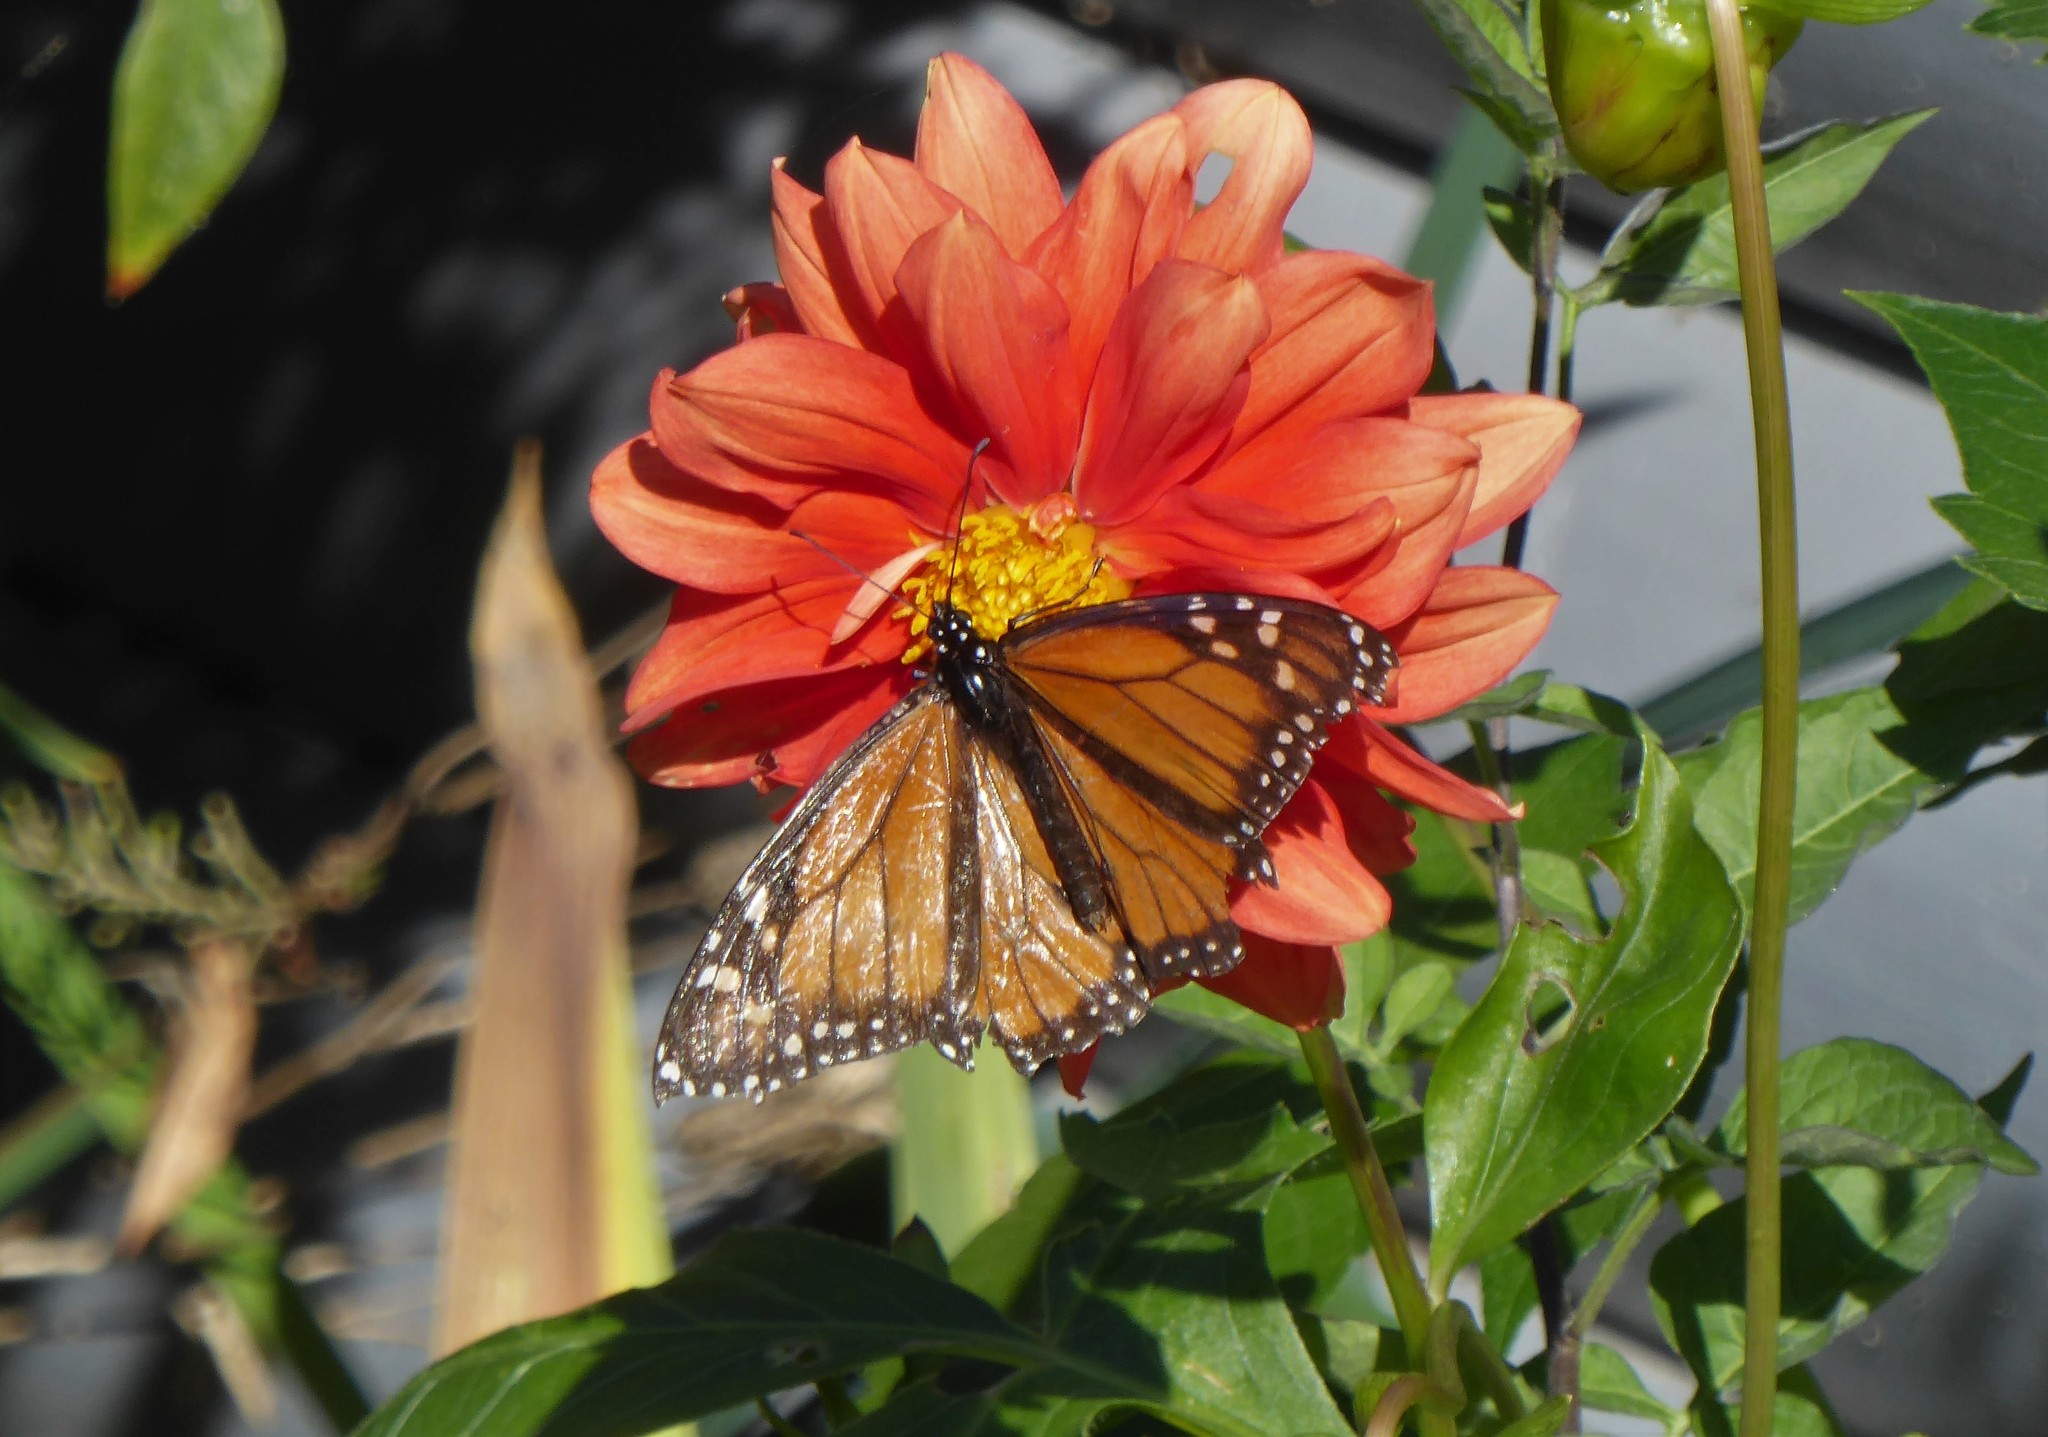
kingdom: Animalia
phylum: Arthropoda
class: Insecta
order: Lepidoptera
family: Nymphalidae
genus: Danaus
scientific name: Danaus plexippus
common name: Monarch
